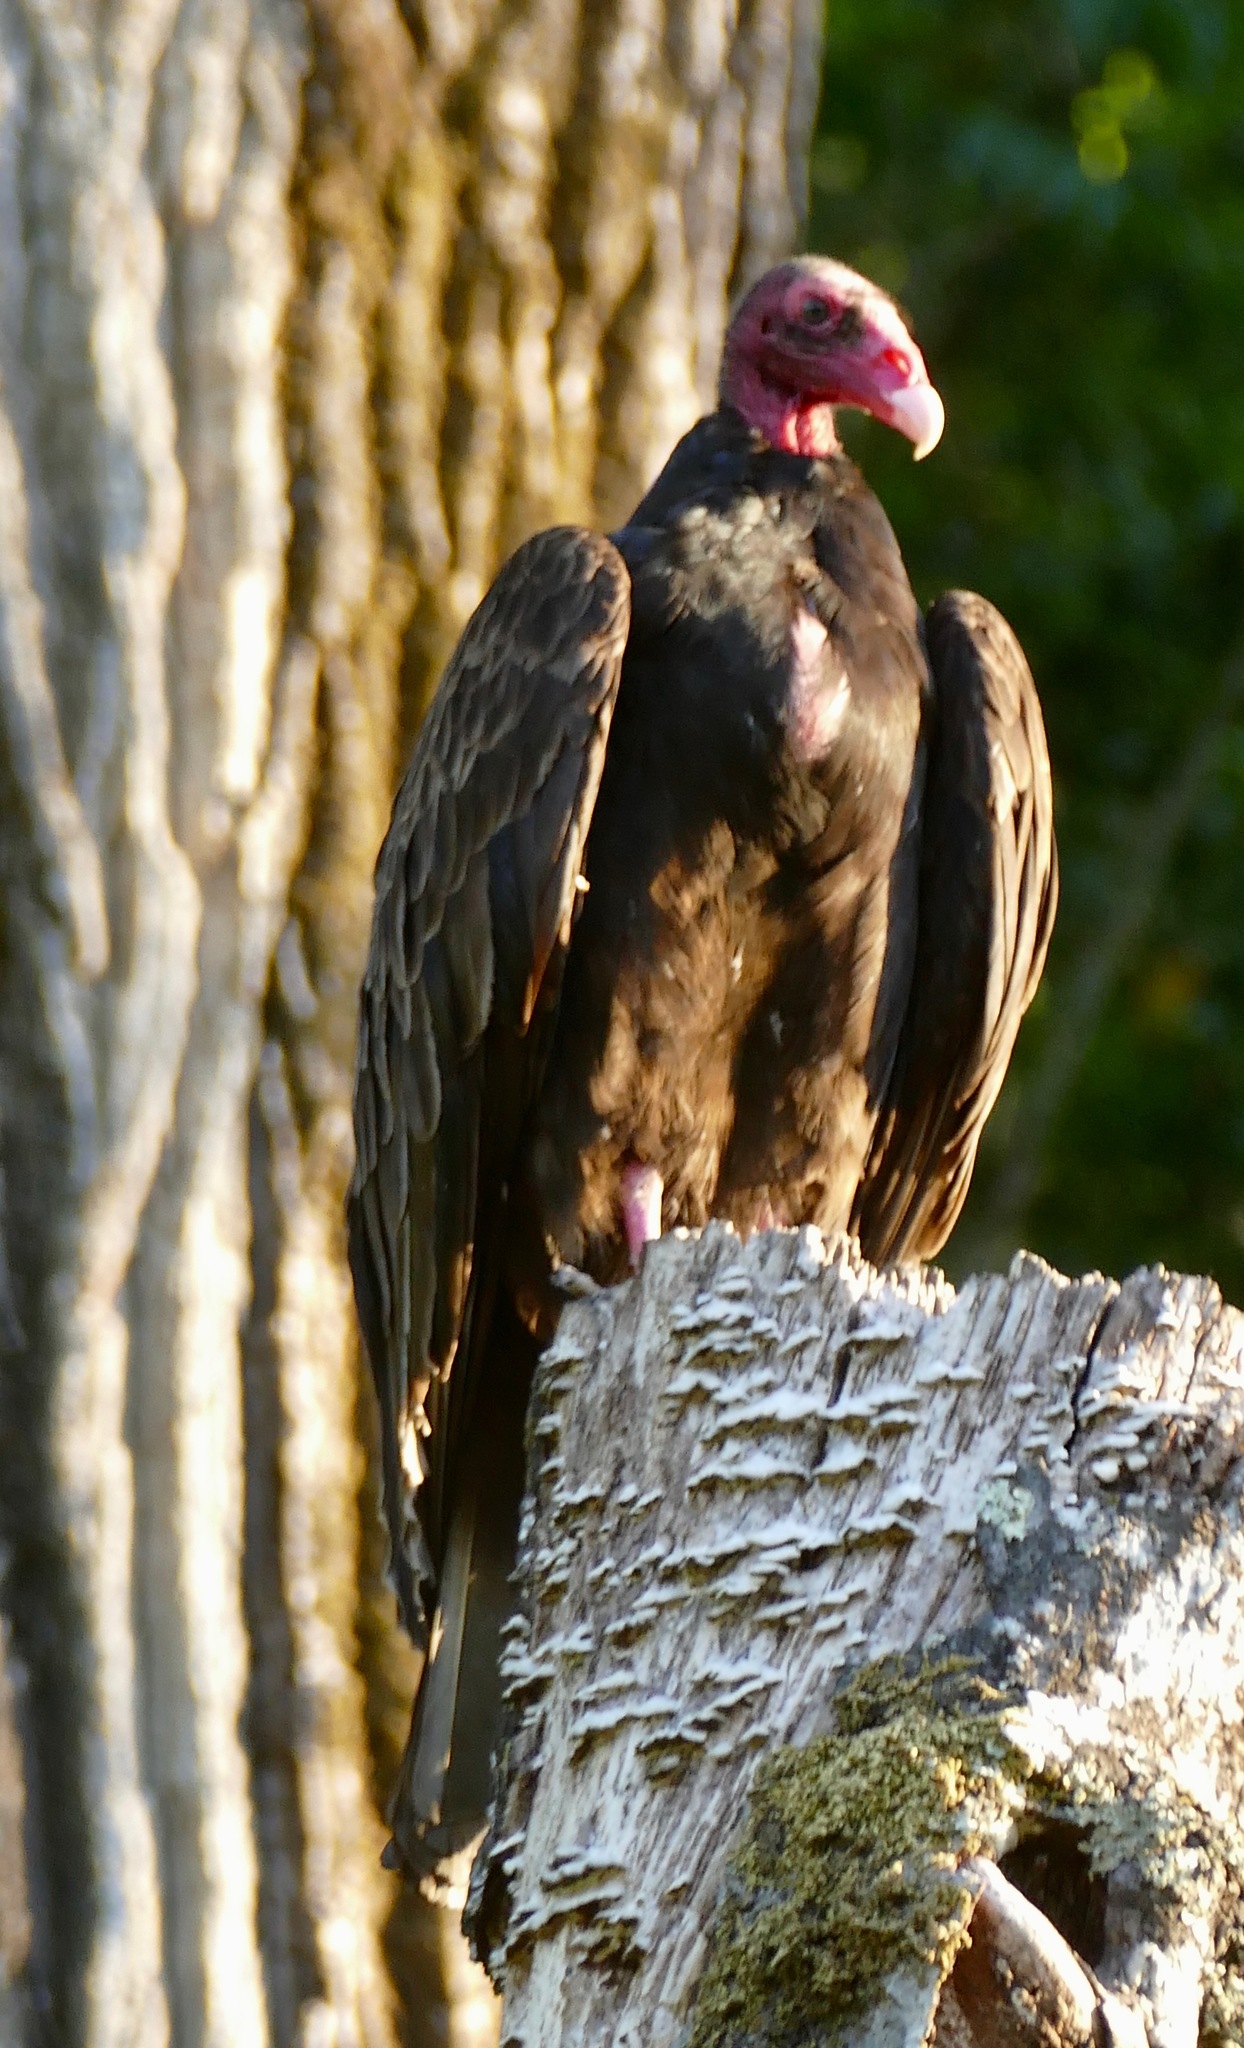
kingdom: Animalia
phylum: Chordata
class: Aves
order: Accipitriformes
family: Cathartidae
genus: Cathartes
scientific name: Cathartes aura
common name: Turkey vulture
